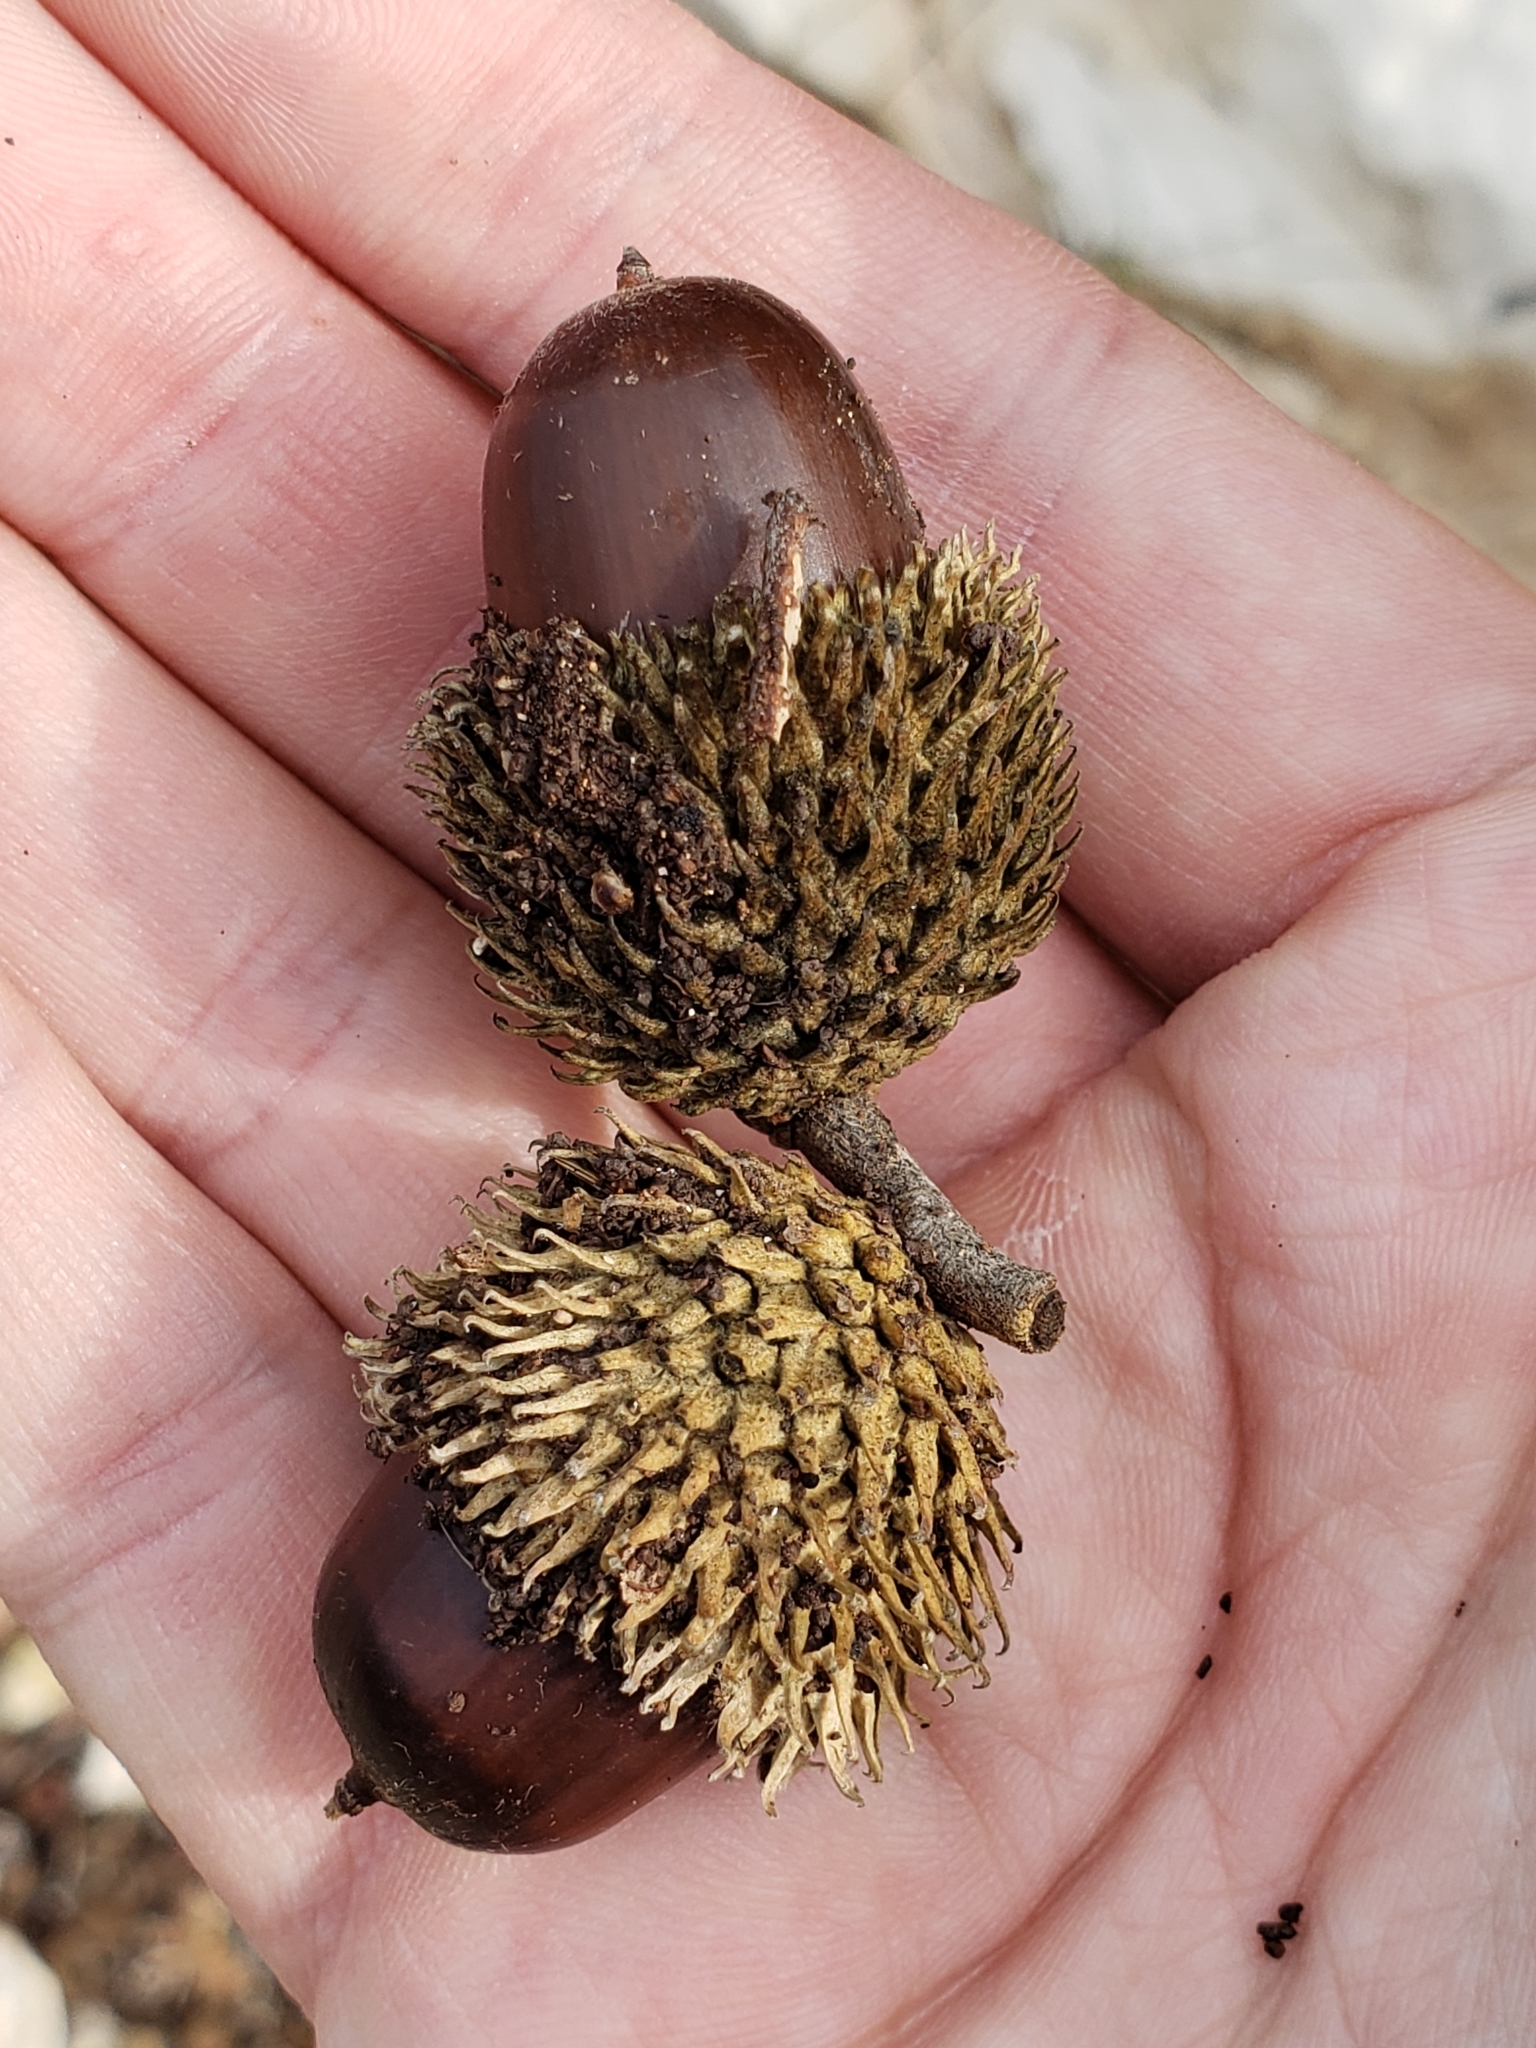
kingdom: Plantae
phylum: Tracheophyta
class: Magnoliopsida
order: Fagales
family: Fagaceae
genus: Quercus
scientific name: Quercus coccifera
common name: Kermes oak
